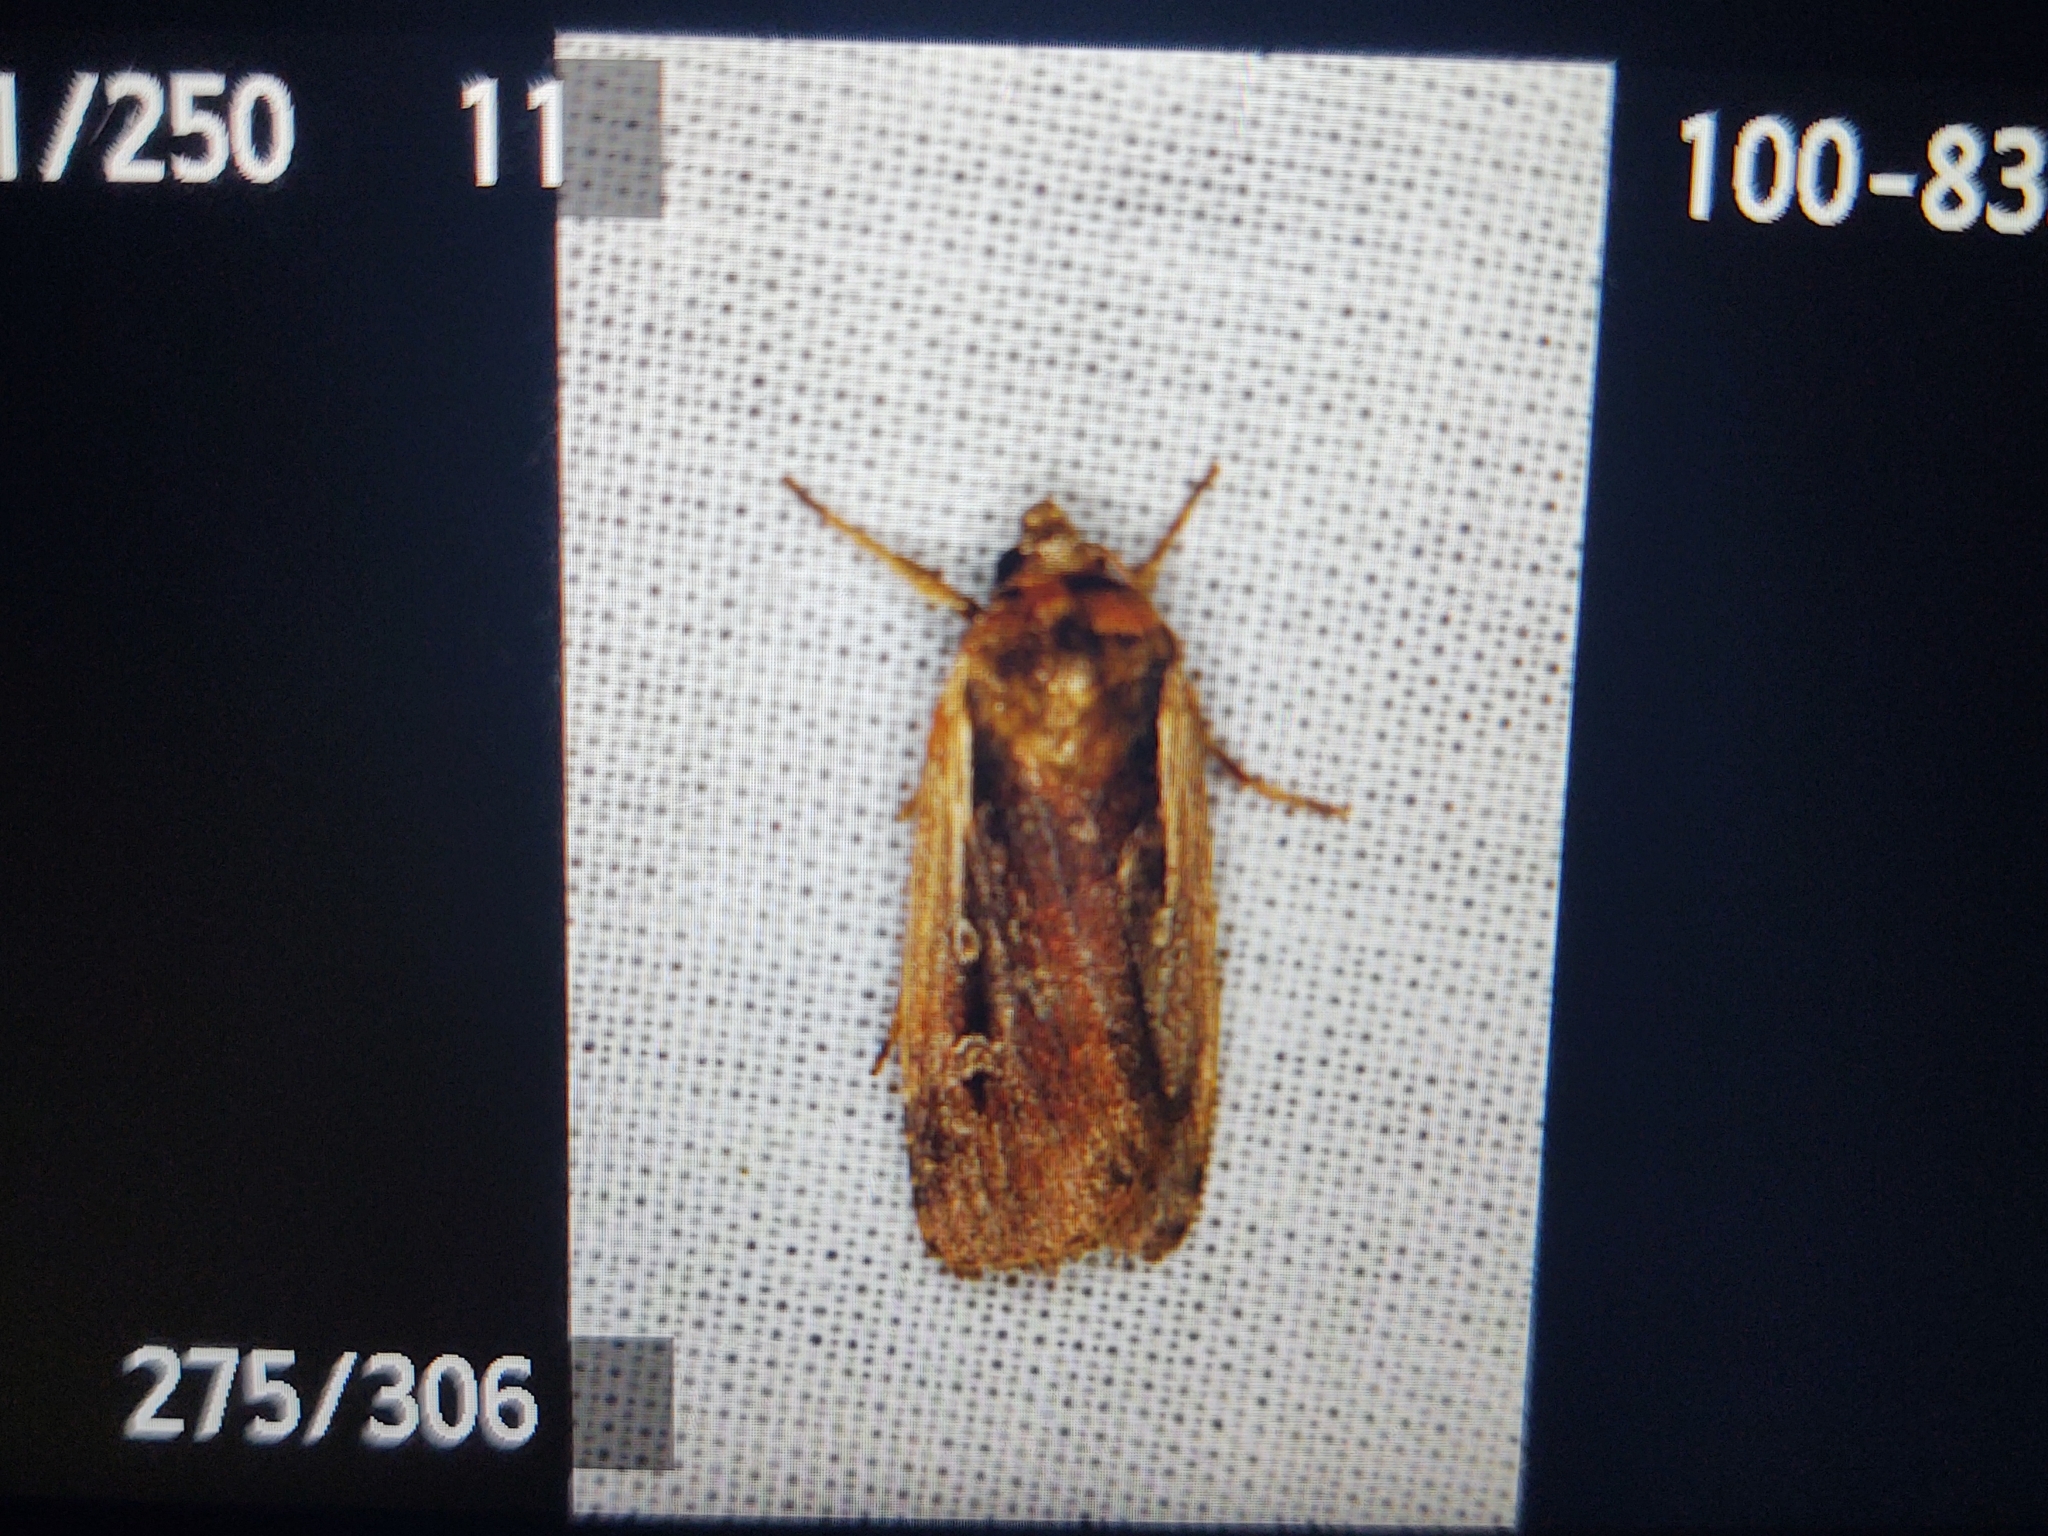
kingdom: Animalia
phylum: Arthropoda
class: Insecta
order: Lepidoptera
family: Noctuidae
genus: Ochropleura
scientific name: Ochropleura plecta
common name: Flame shoulder
